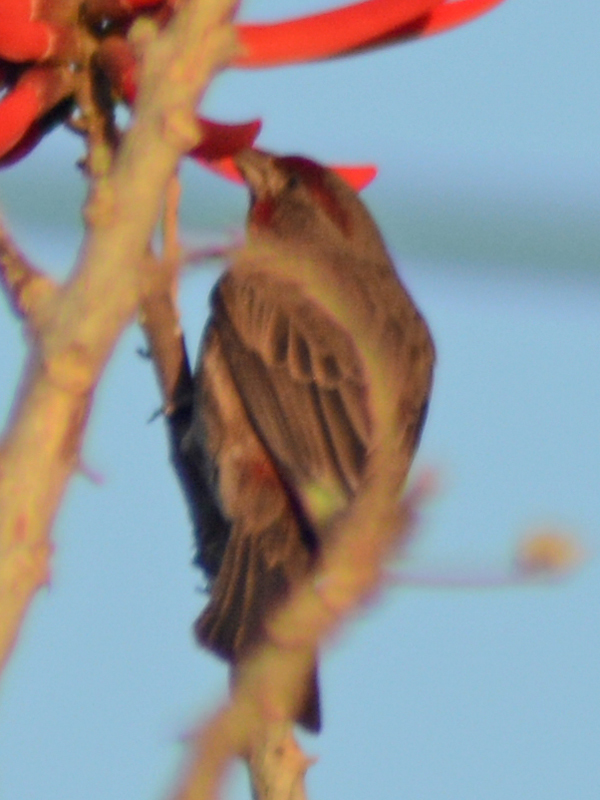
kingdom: Animalia
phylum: Chordata
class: Aves
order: Passeriformes
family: Fringillidae
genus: Haemorhous
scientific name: Haemorhous mexicanus
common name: House finch
